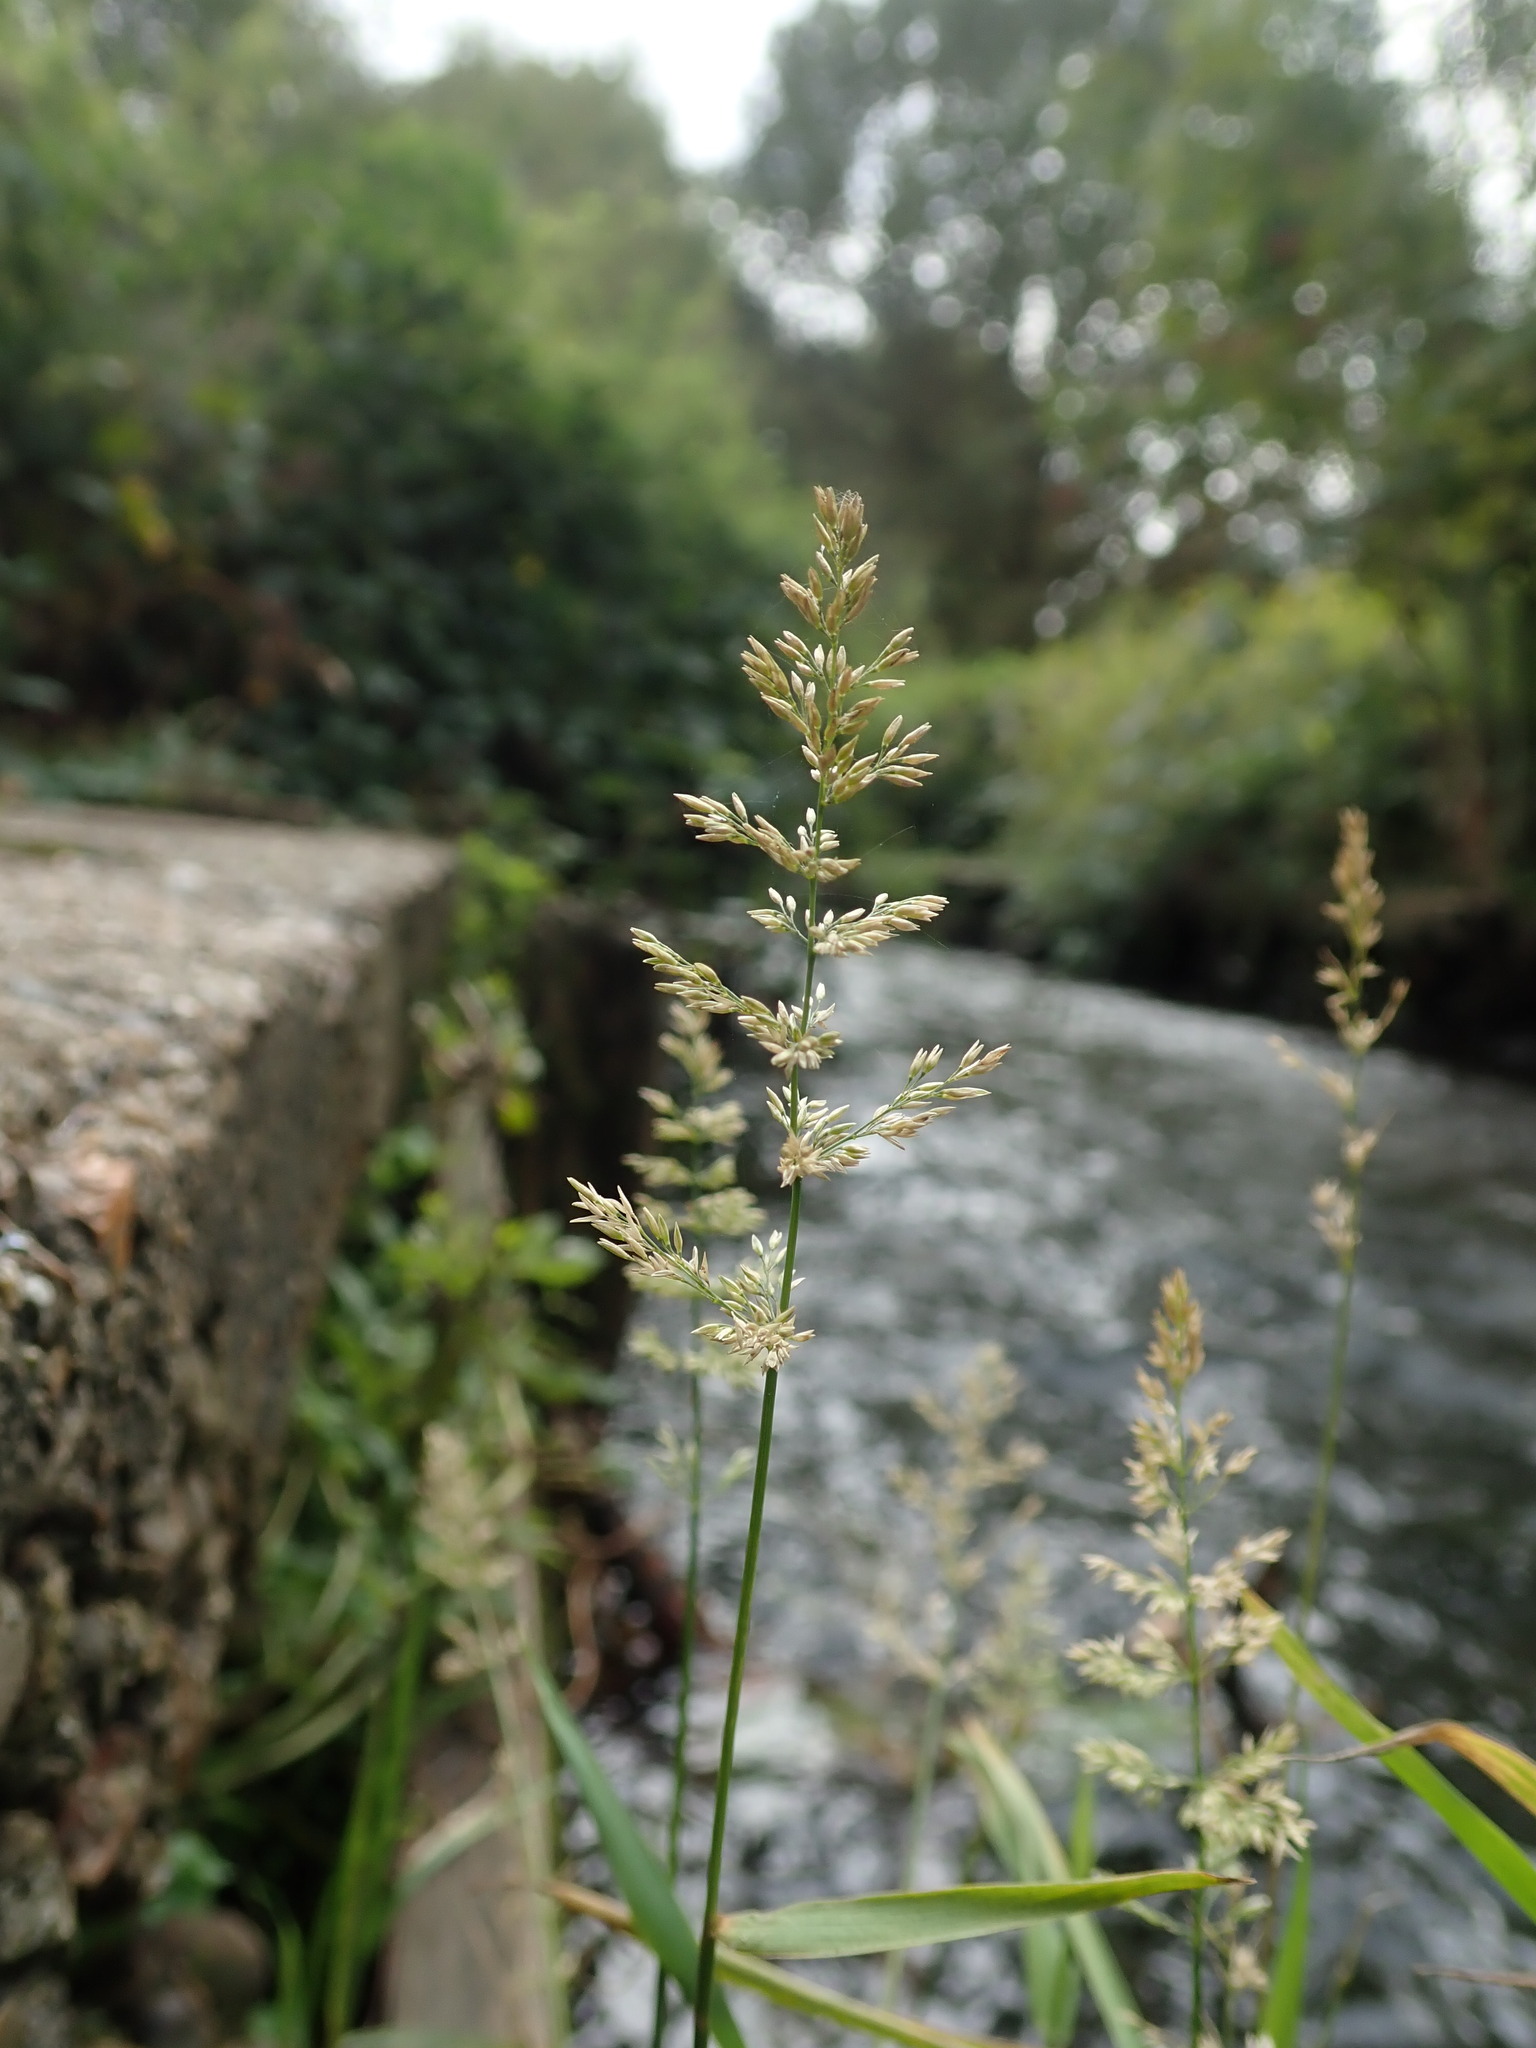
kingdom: Plantae
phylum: Tracheophyta
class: Liliopsida
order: Poales
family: Poaceae
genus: Polypogon
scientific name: Polypogon viridis
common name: Water bent
